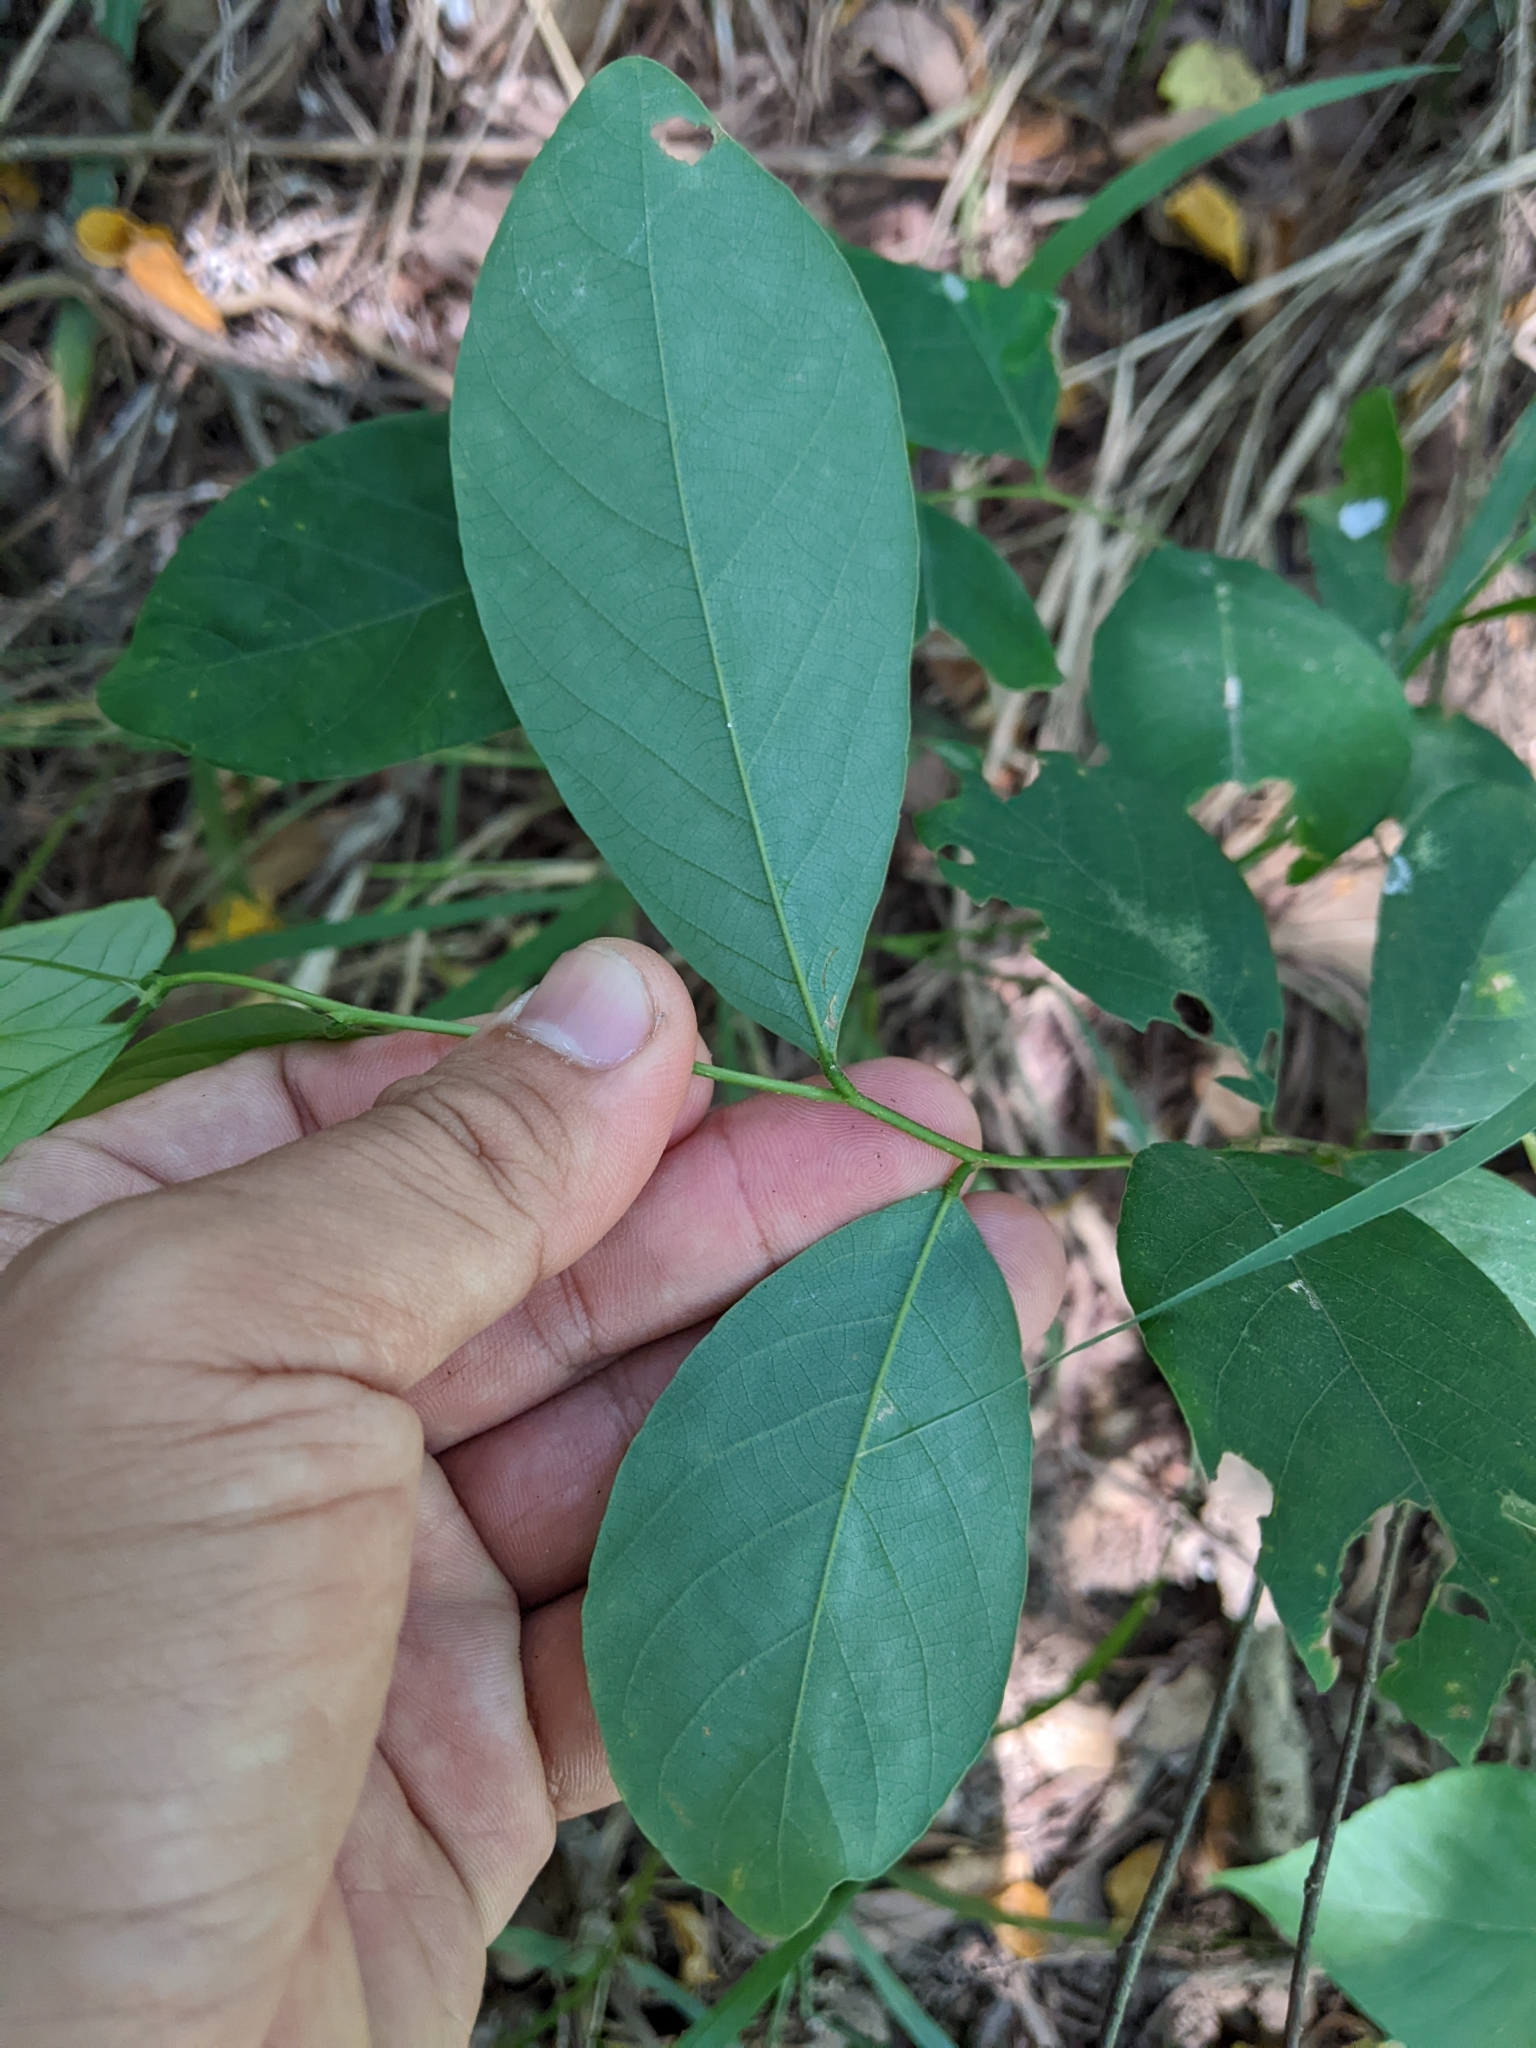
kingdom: Plantae
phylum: Tracheophyta
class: Magnoliopsida
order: Malpighiales
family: Phyllanthaceae
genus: Bridelia
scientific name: Bridelia tomentosa
